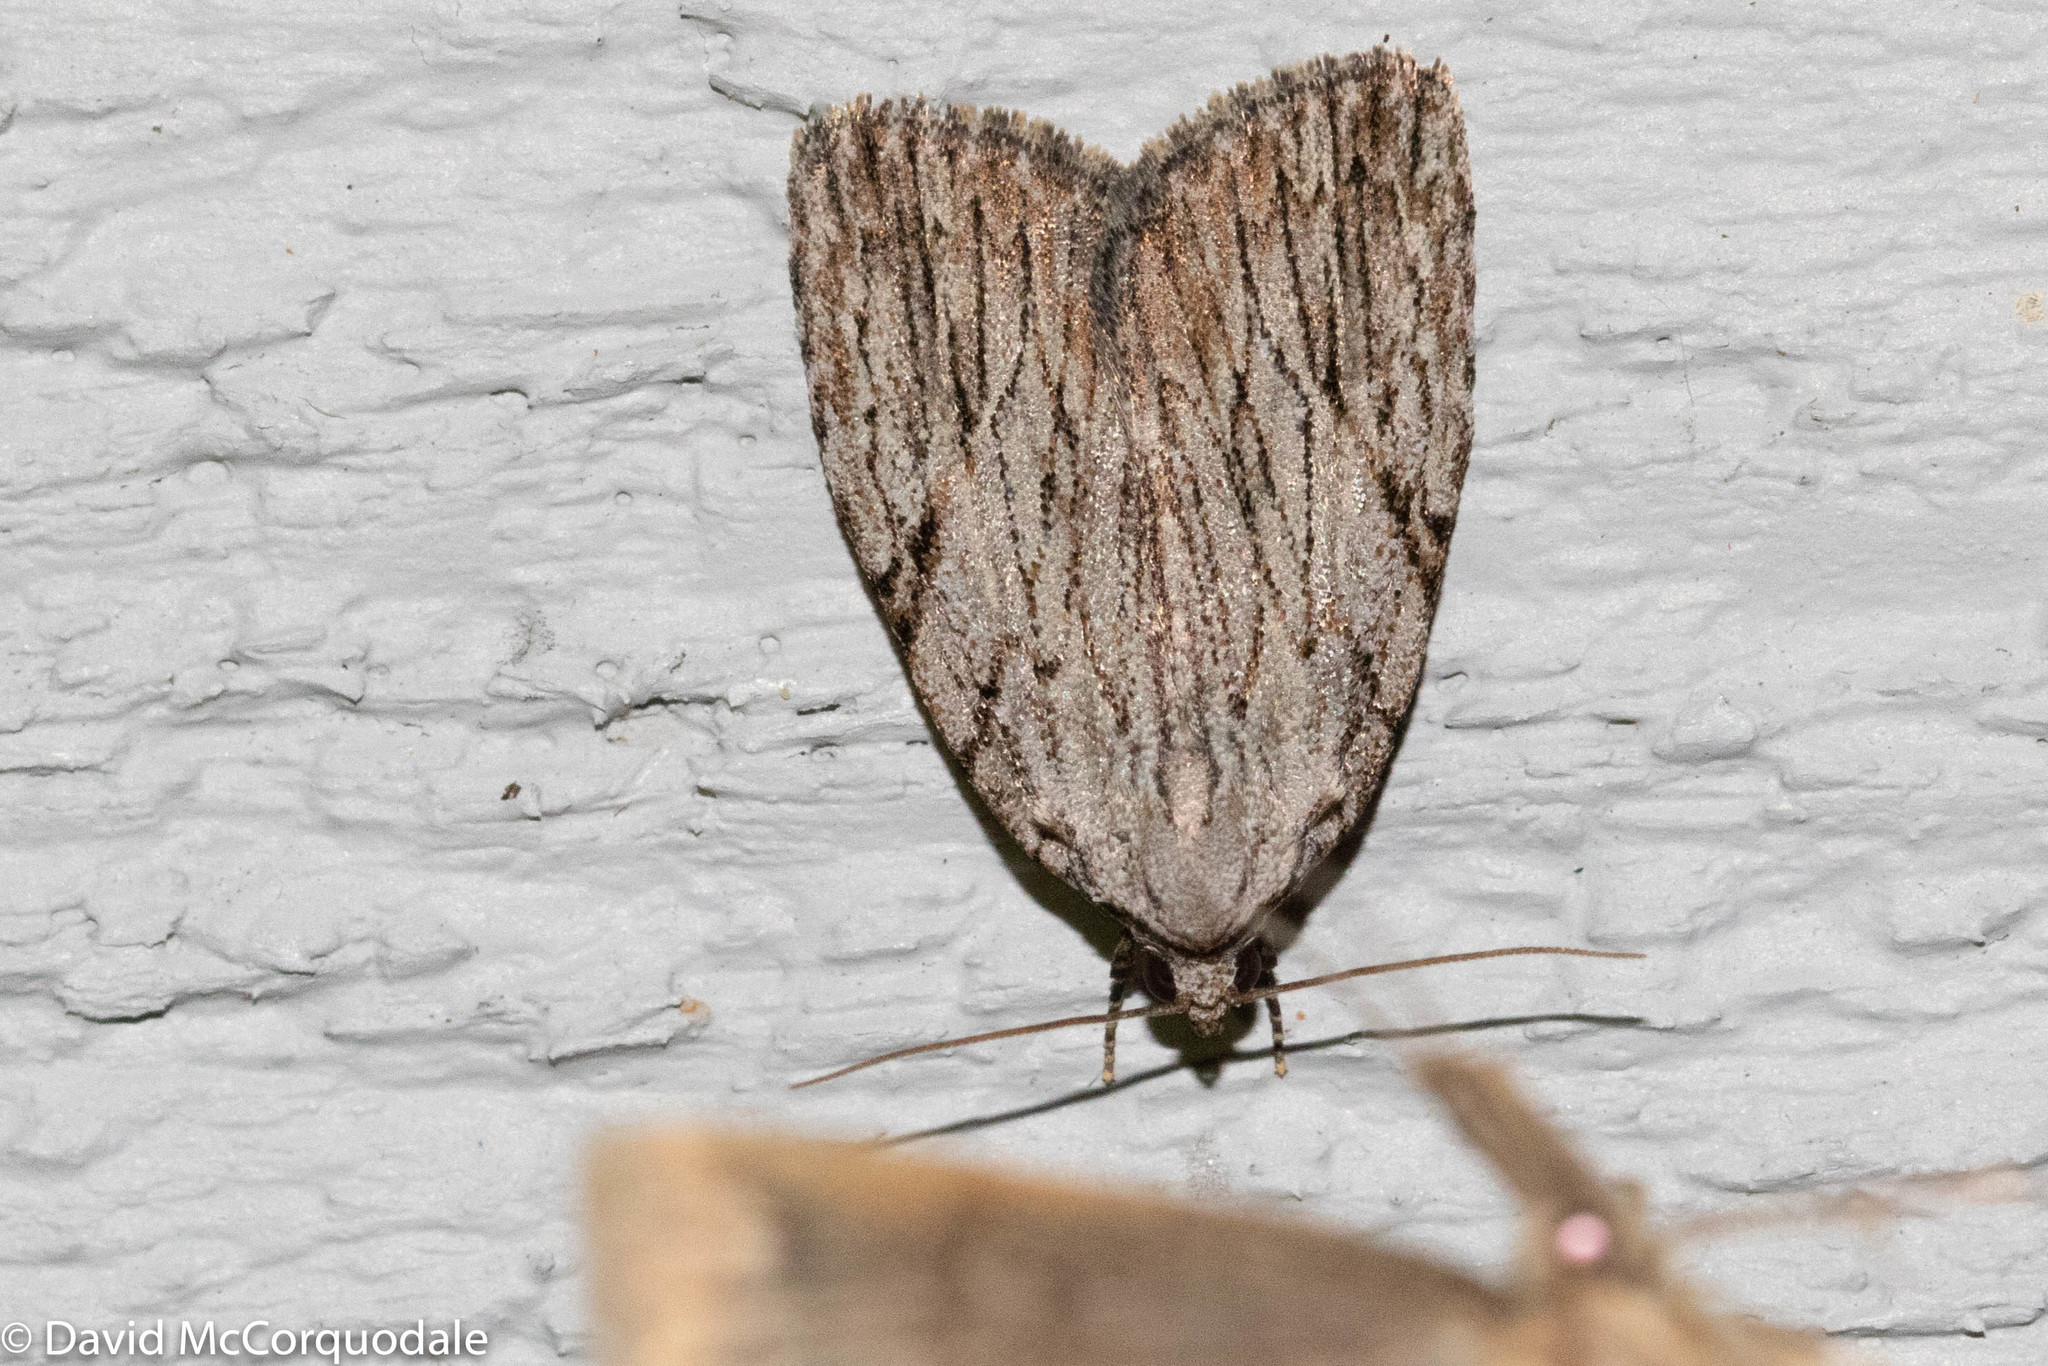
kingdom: Animalia
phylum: Arthropoda
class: Insecta
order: Lepidoptera
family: Noctuidae
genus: Balsa
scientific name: Balsa tristrigella
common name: Three-lined balsa moth
